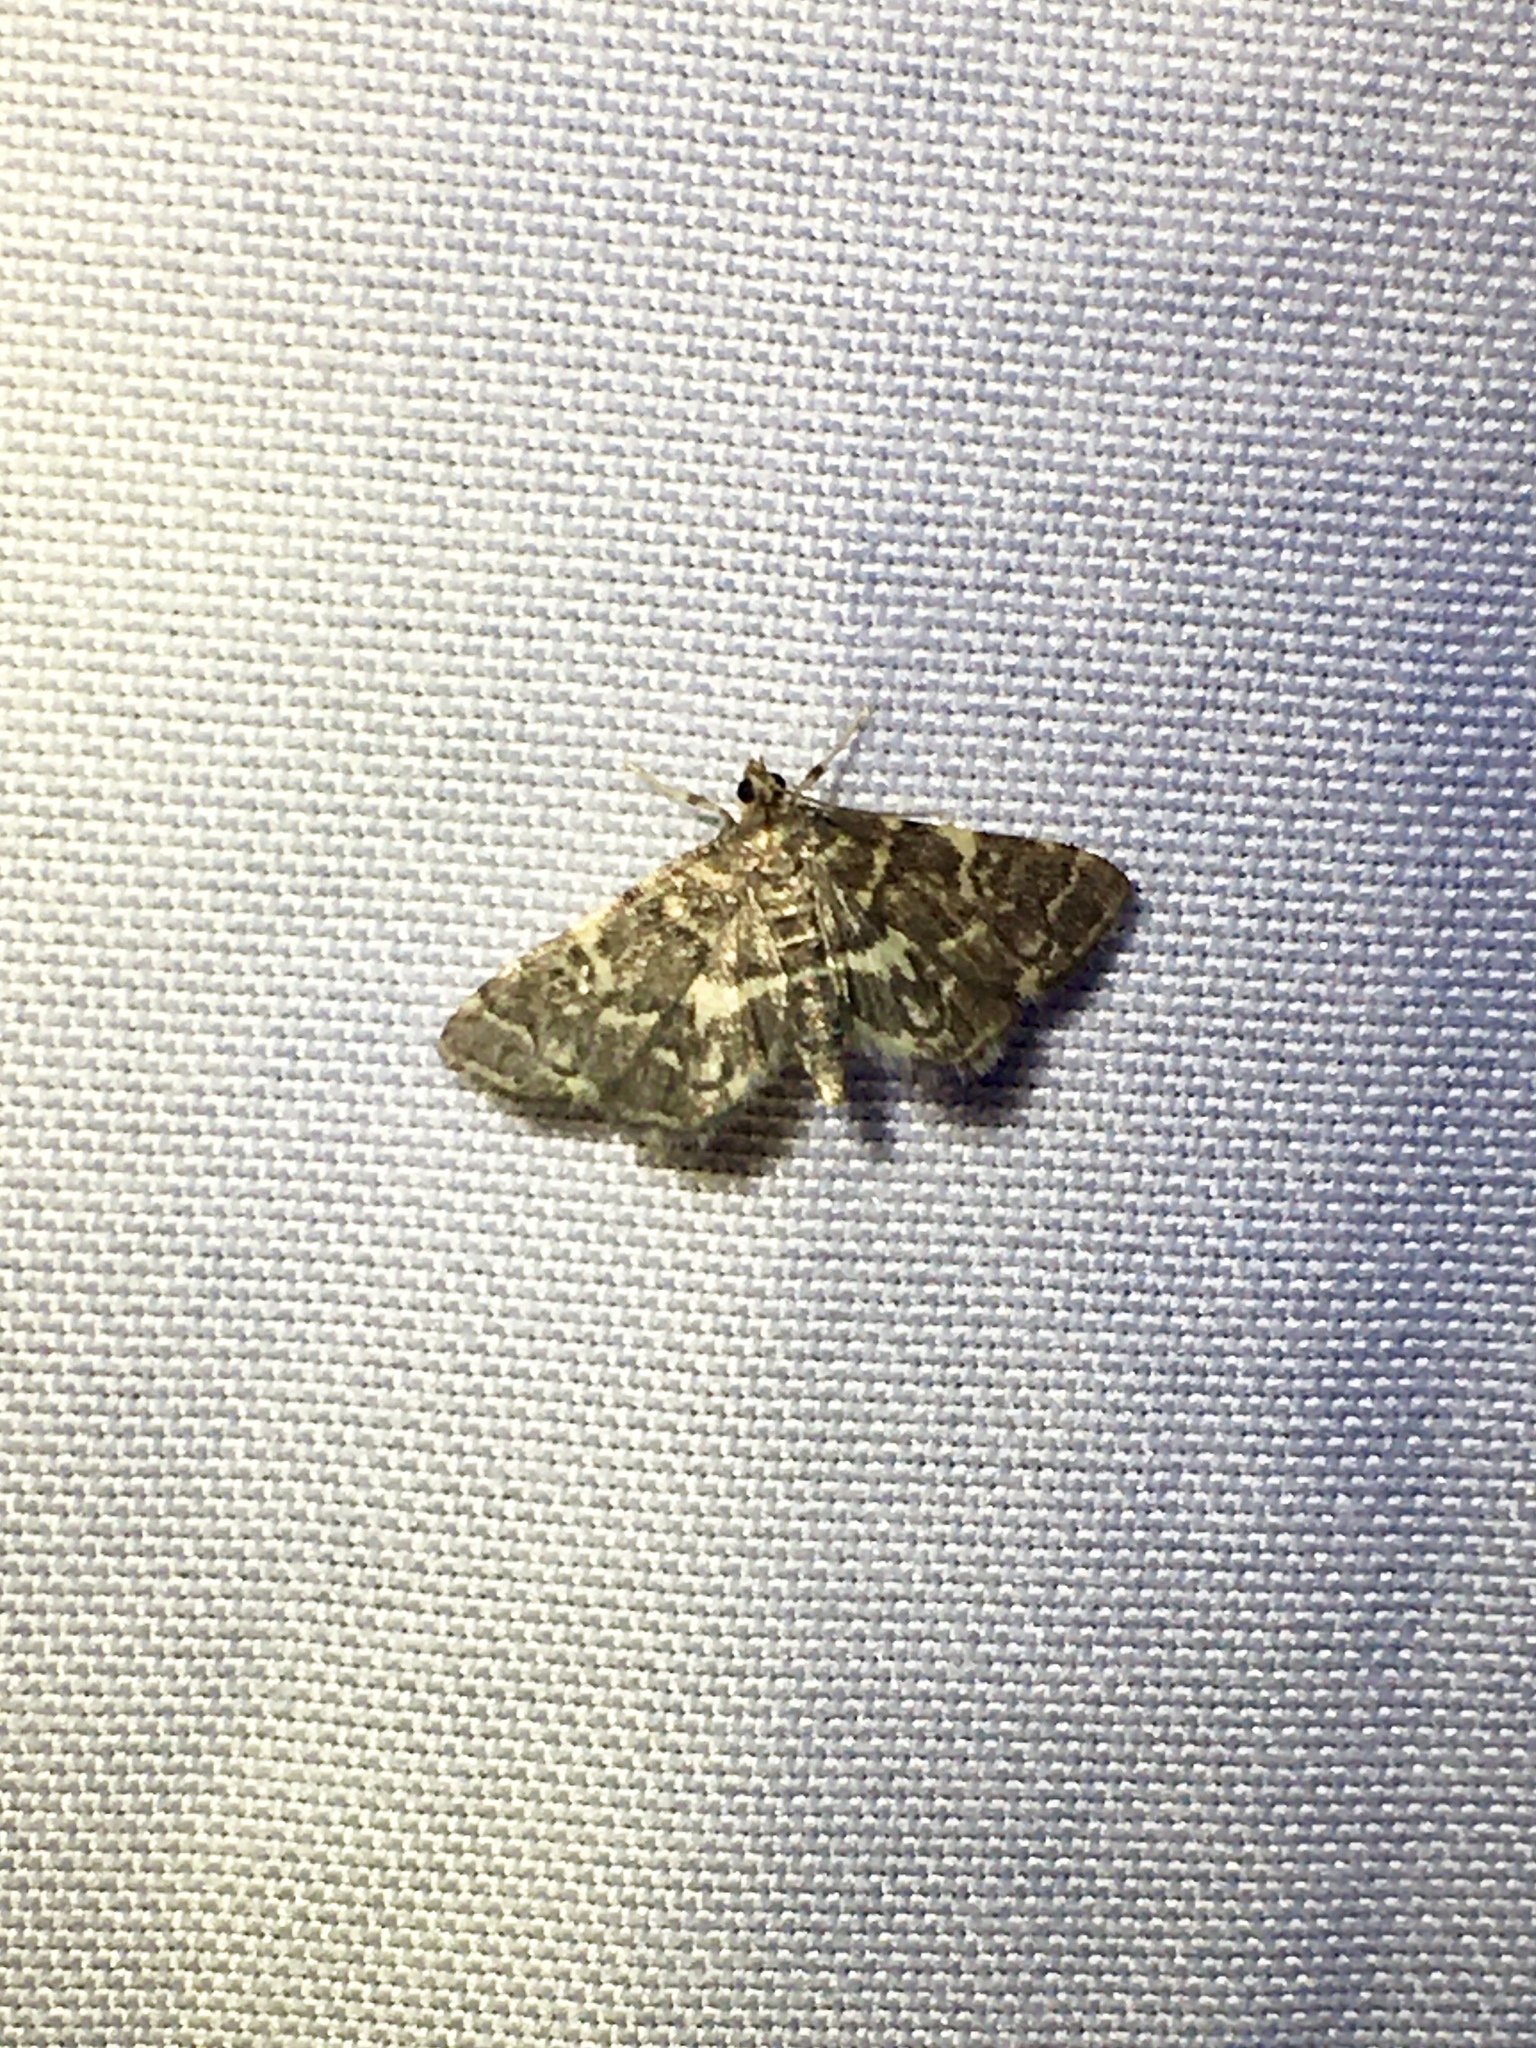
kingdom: Animalia
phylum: Arthropoda
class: Insecta
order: Lepidoptera
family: Crambidae
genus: Anageshna
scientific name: Anageshna primordialis
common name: Yellow-spotted webworm moth
